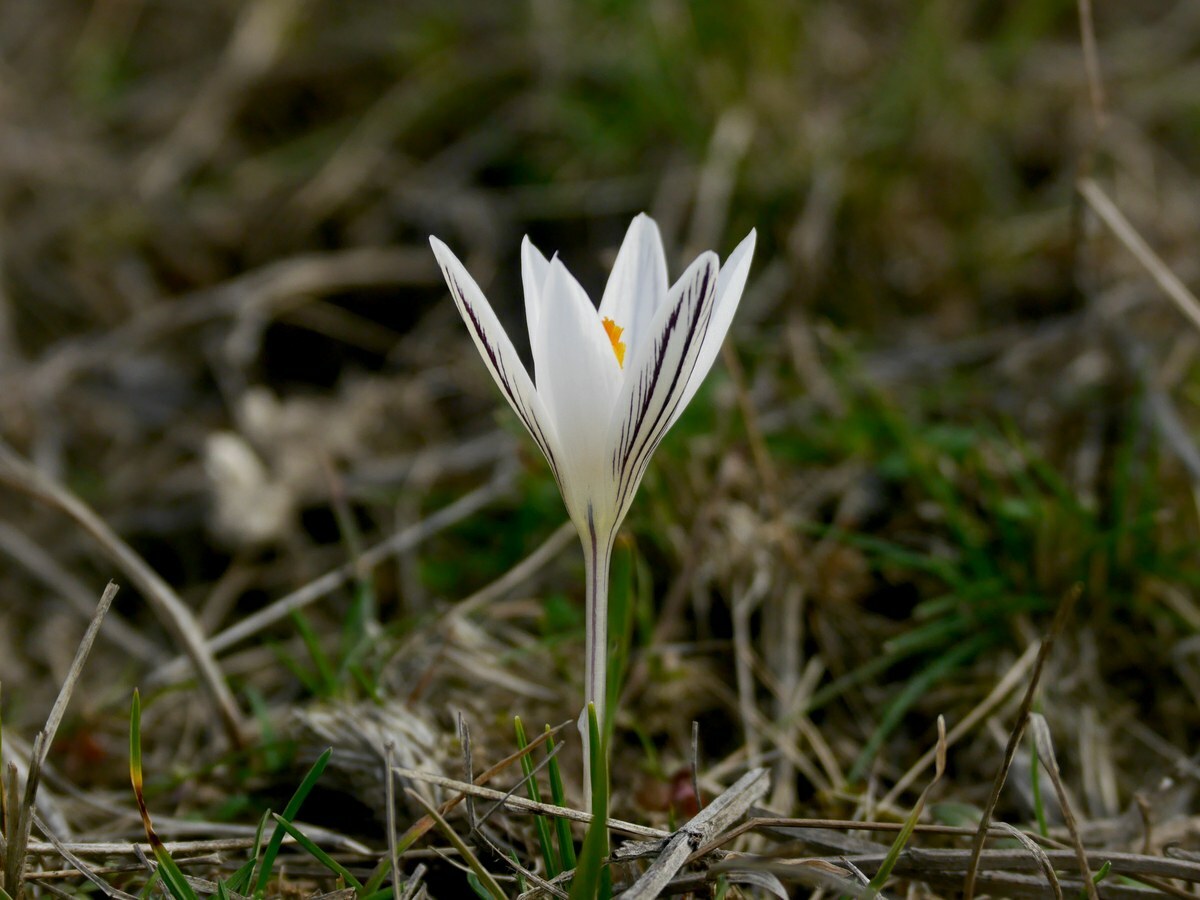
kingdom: Plantae
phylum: Tracheophyta
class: Liliopsida
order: Asparagales
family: Iridaceae
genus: Crocus
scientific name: Crocus reticulatus
